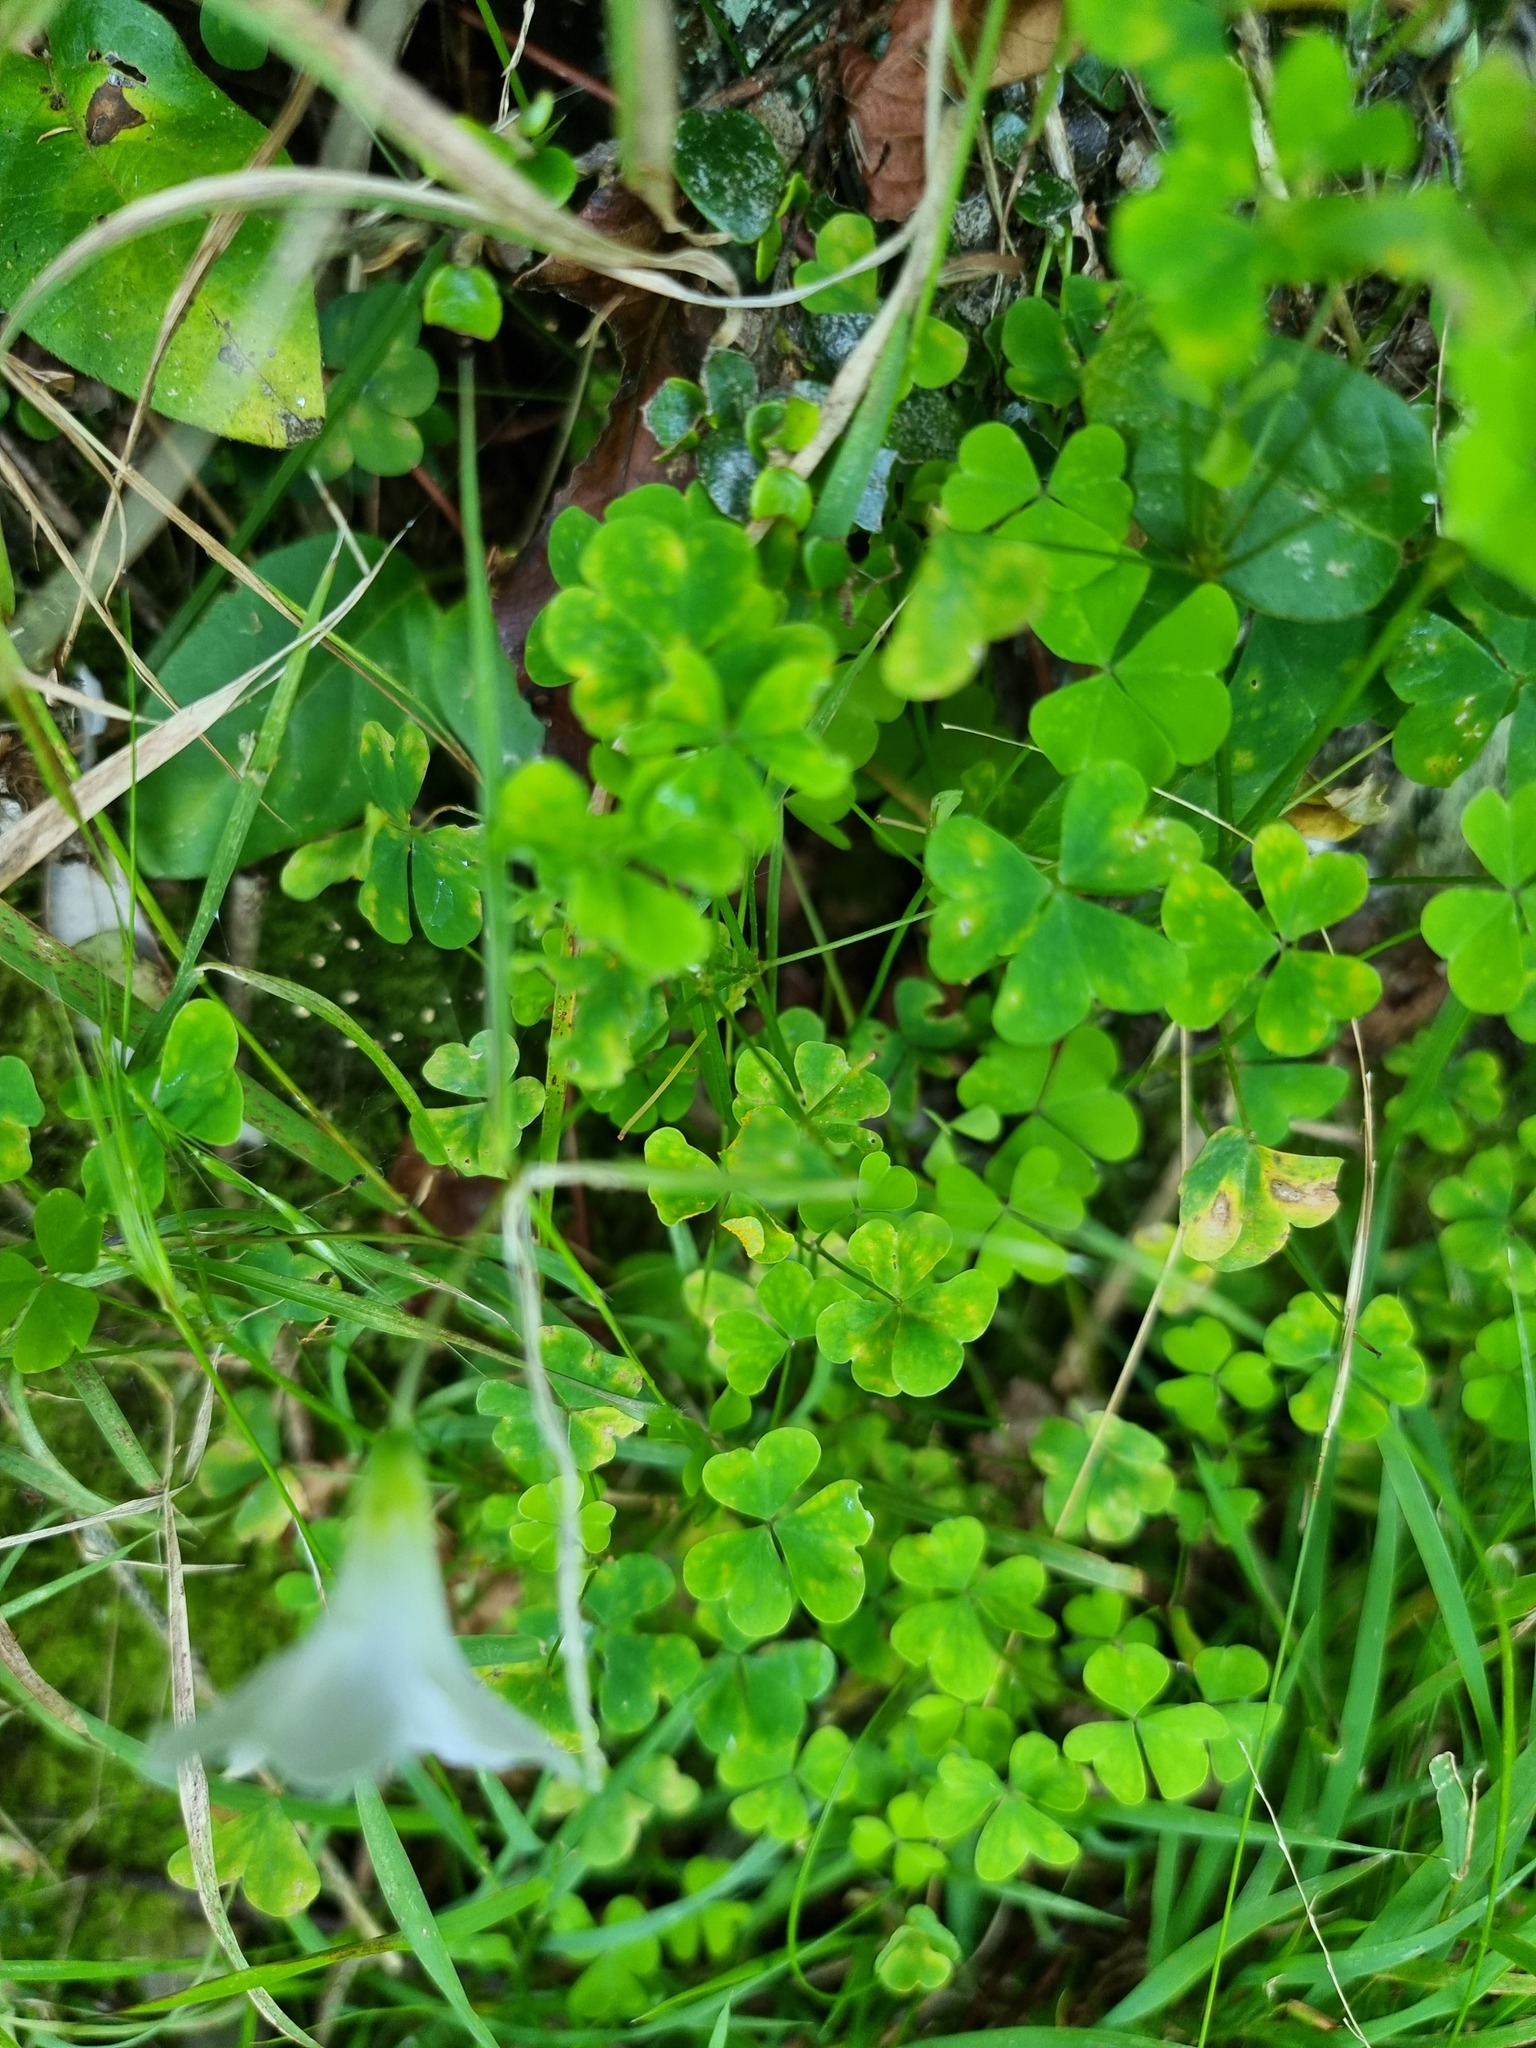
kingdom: Plantae
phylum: Tracheophyta
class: Magnoliopsida
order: Oxalidales
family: Oxalidaceae
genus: Oxalis
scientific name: Oxalis incarnata
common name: Pale pink-sorrel
